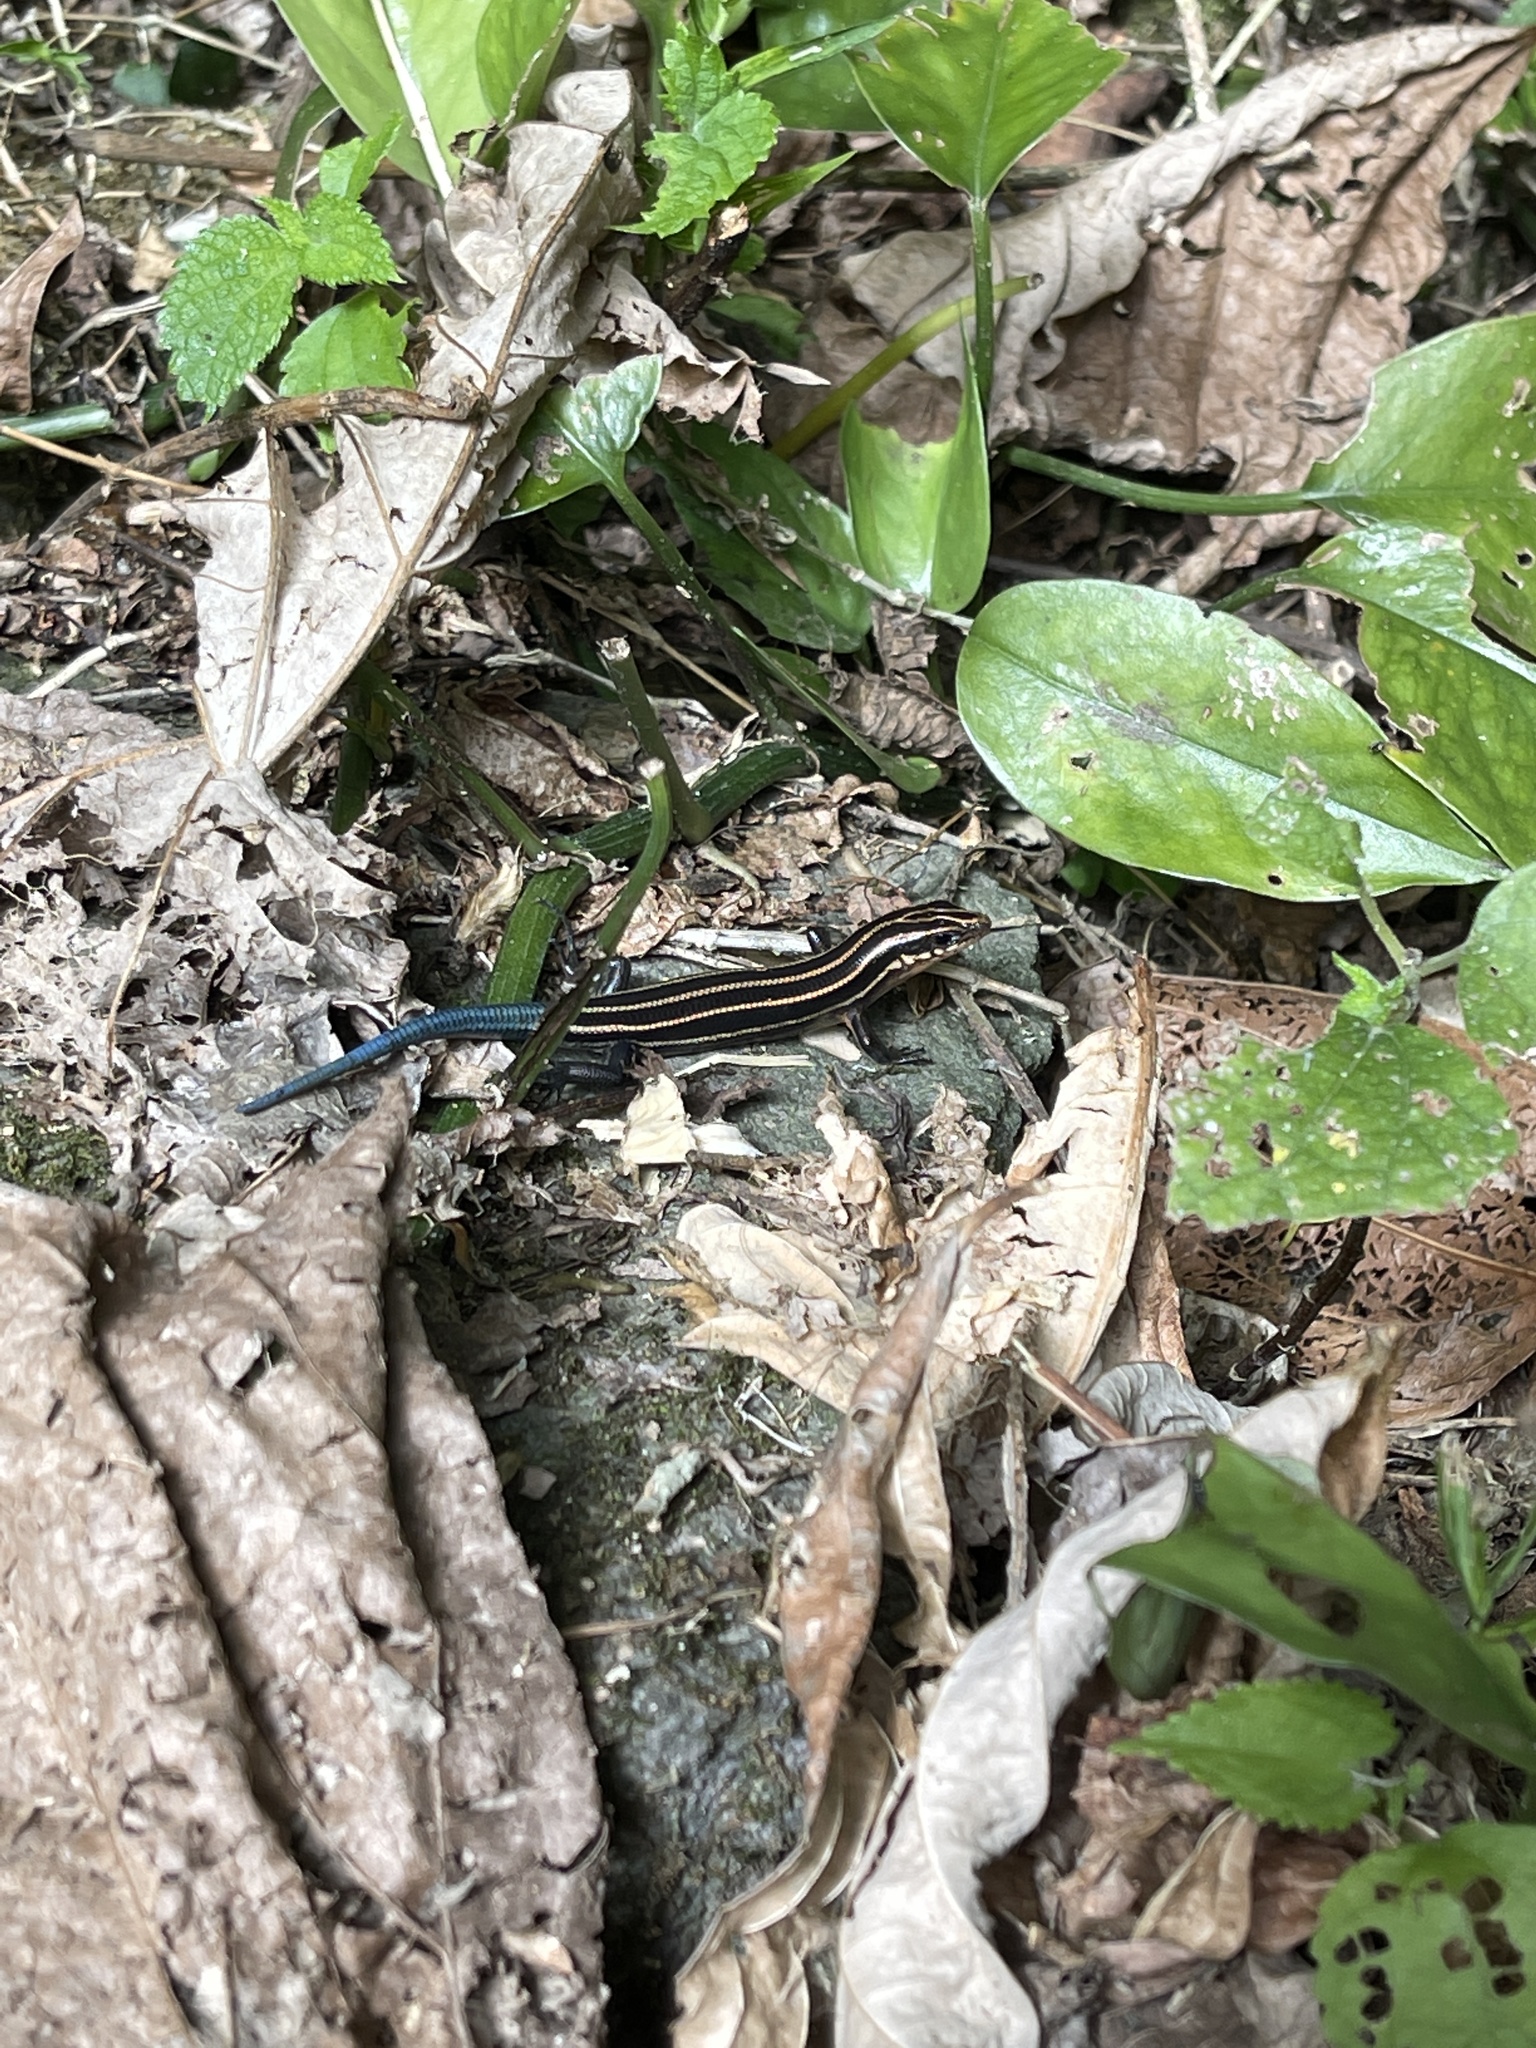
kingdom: Animalia
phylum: Chordata
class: Squamata
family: Scincidae
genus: Plestiodon
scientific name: Plestiodon elegans
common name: Shanghai elegant skink
